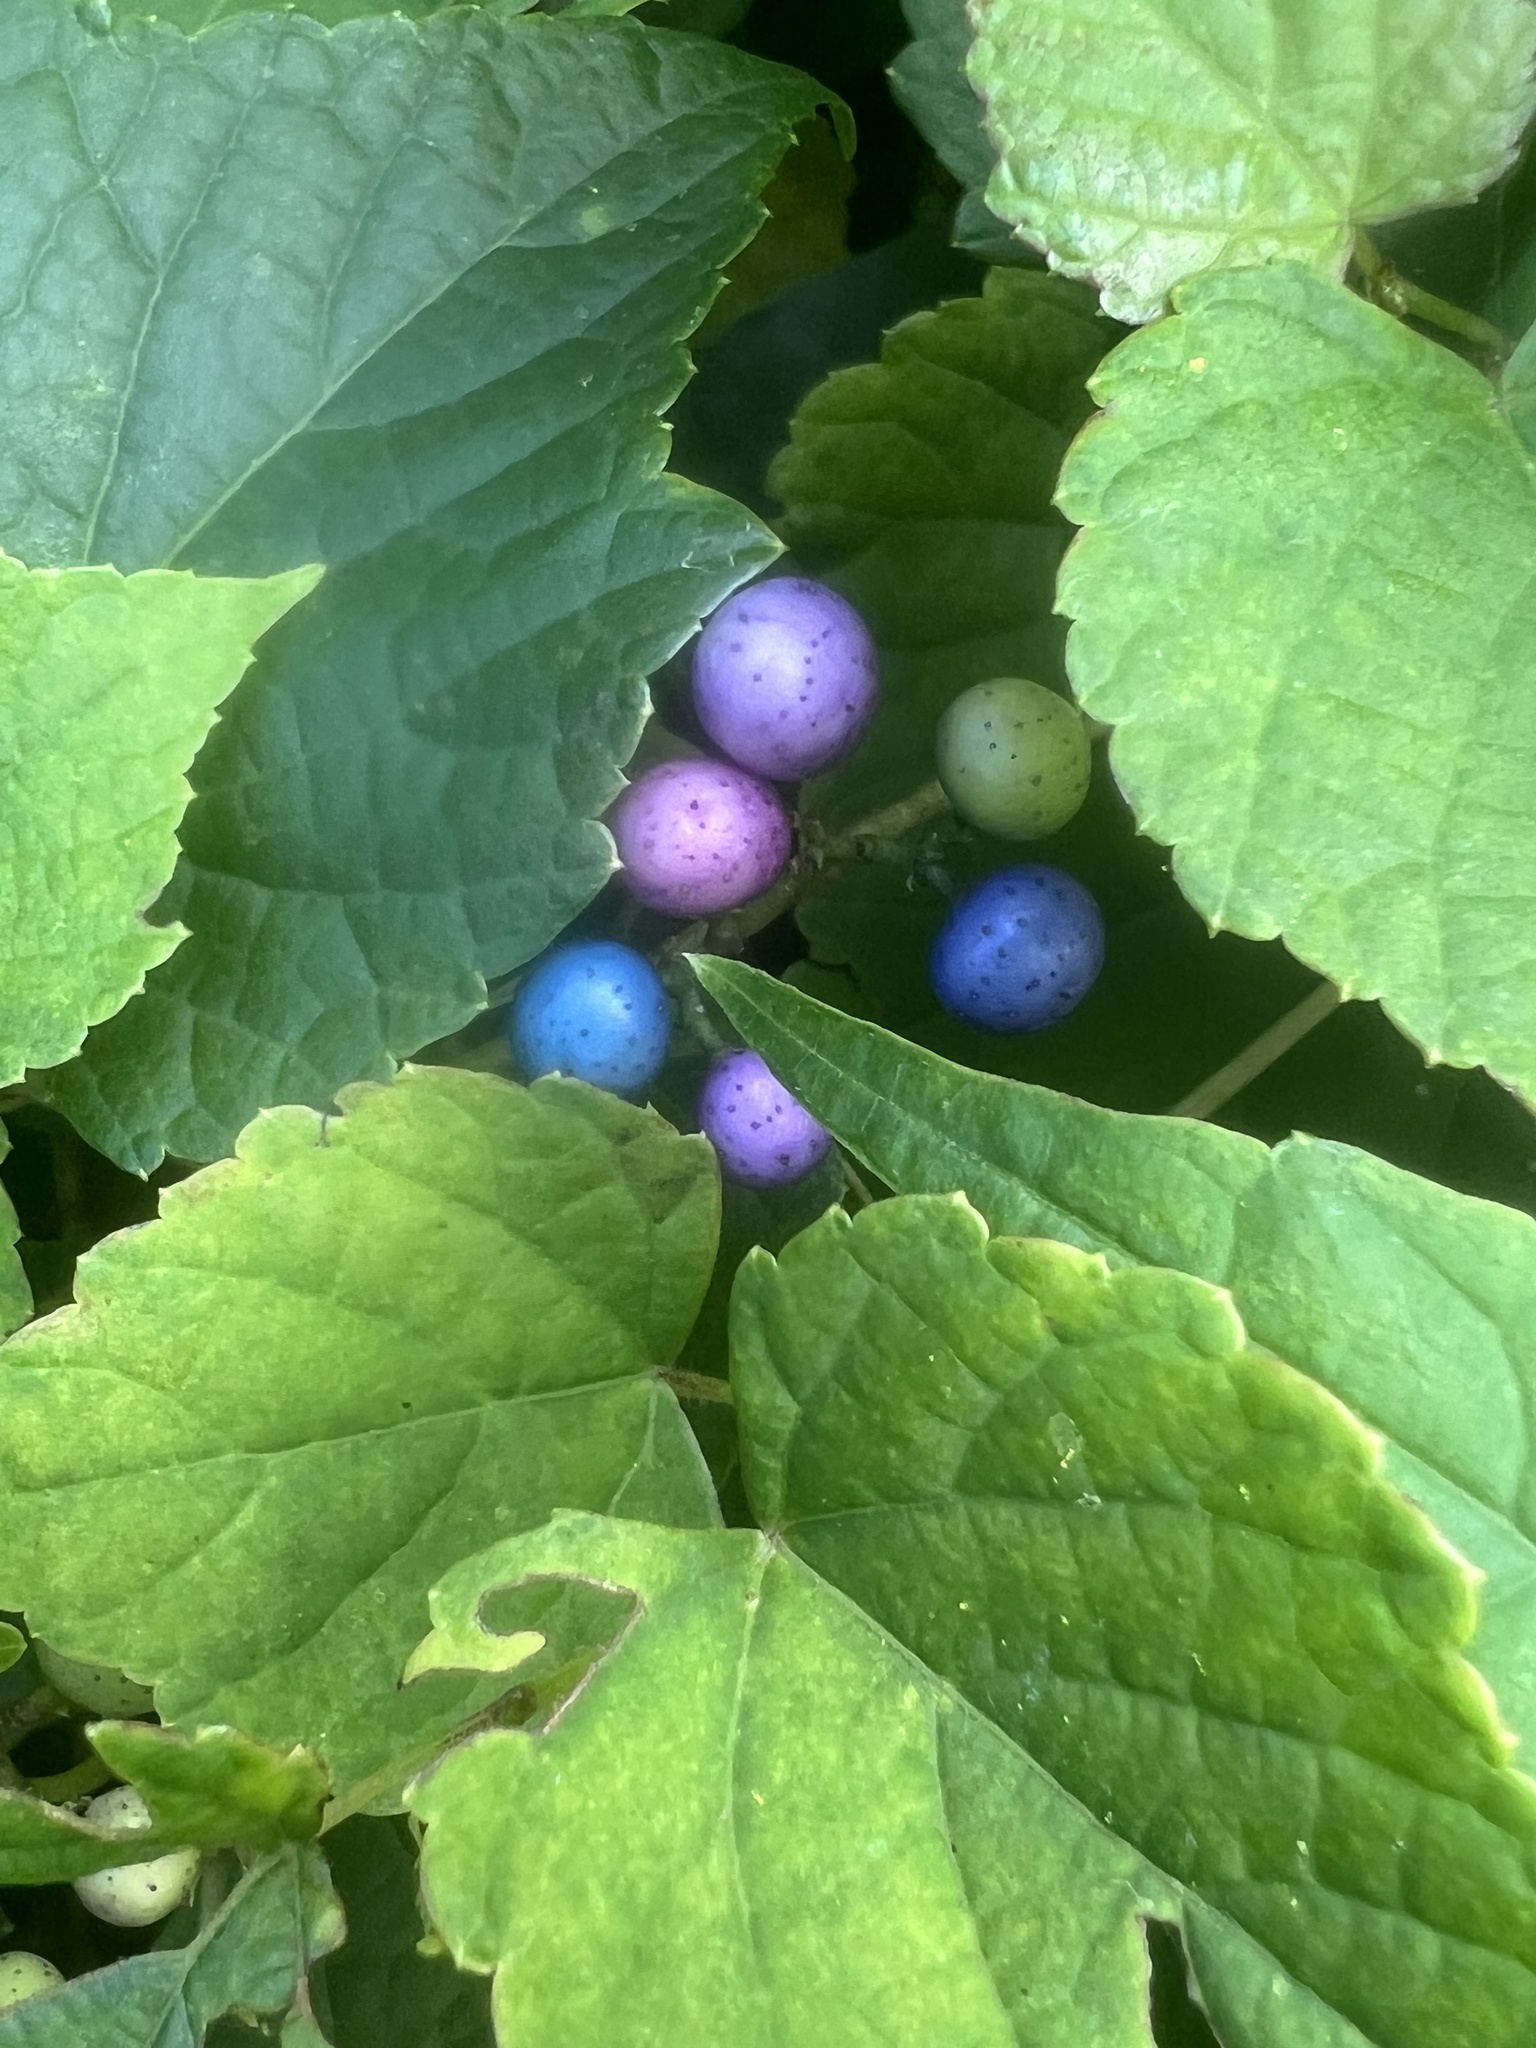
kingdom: Plantae
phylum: Tracheophyta
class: Magnoliopsida
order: Vitales
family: Vitaceae
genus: Ampelopsis
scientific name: Ampelopsis glandulosa
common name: Amur peppervine
